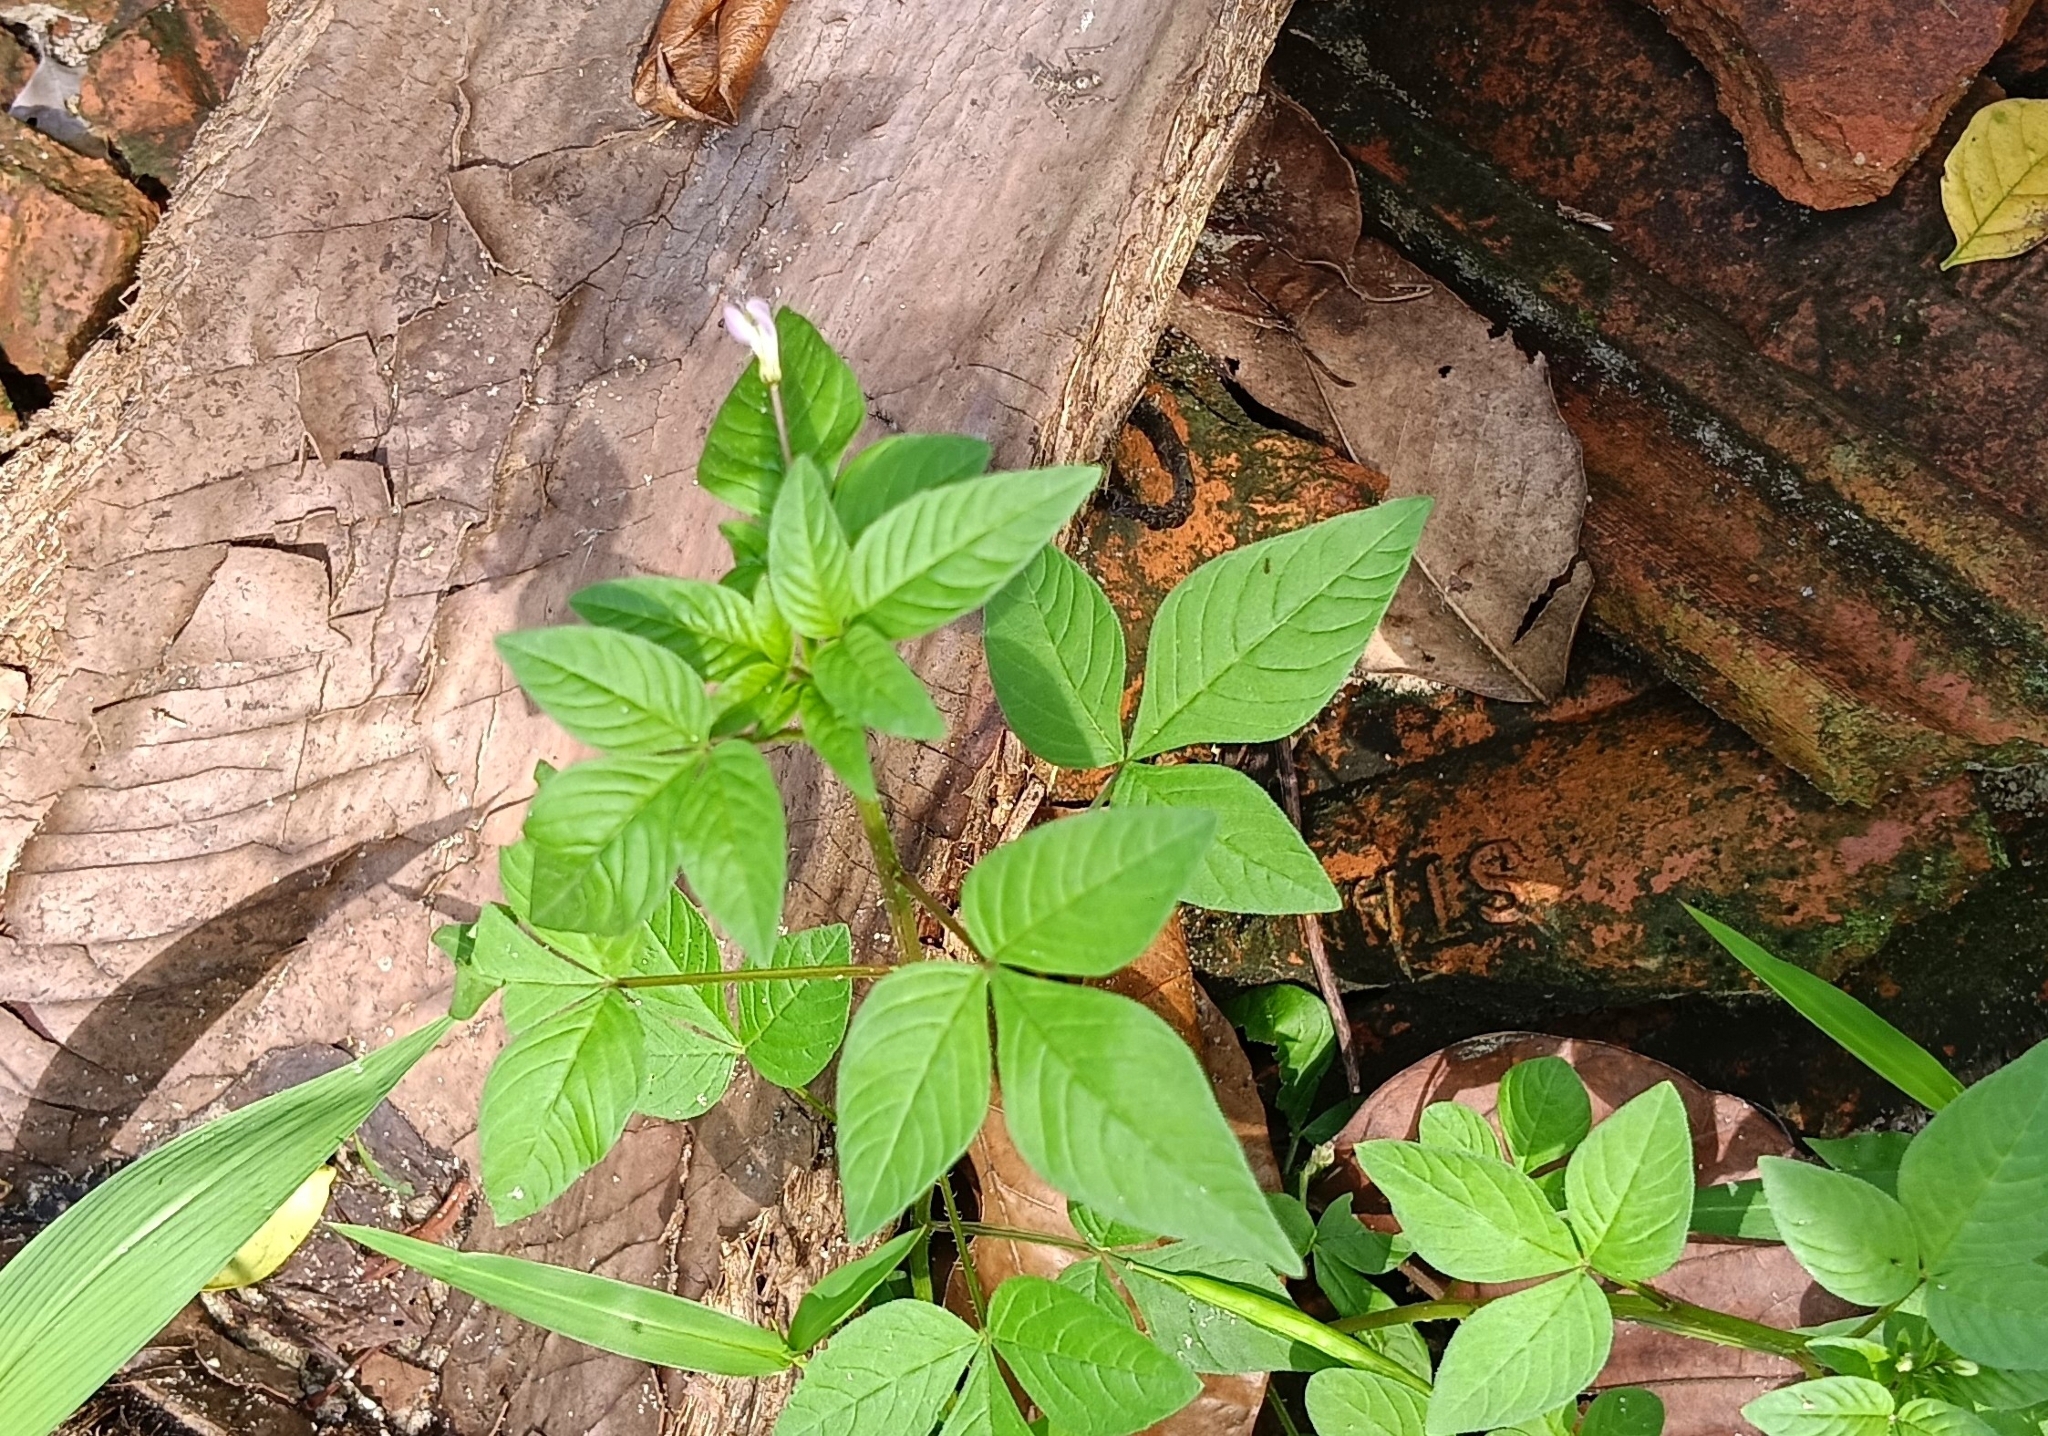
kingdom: Plantae
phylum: Tracheophyta
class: Magnoliopsida
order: Brassicales
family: Cleomaceae
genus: Sieruela
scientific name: Sieruela rutidosperma
